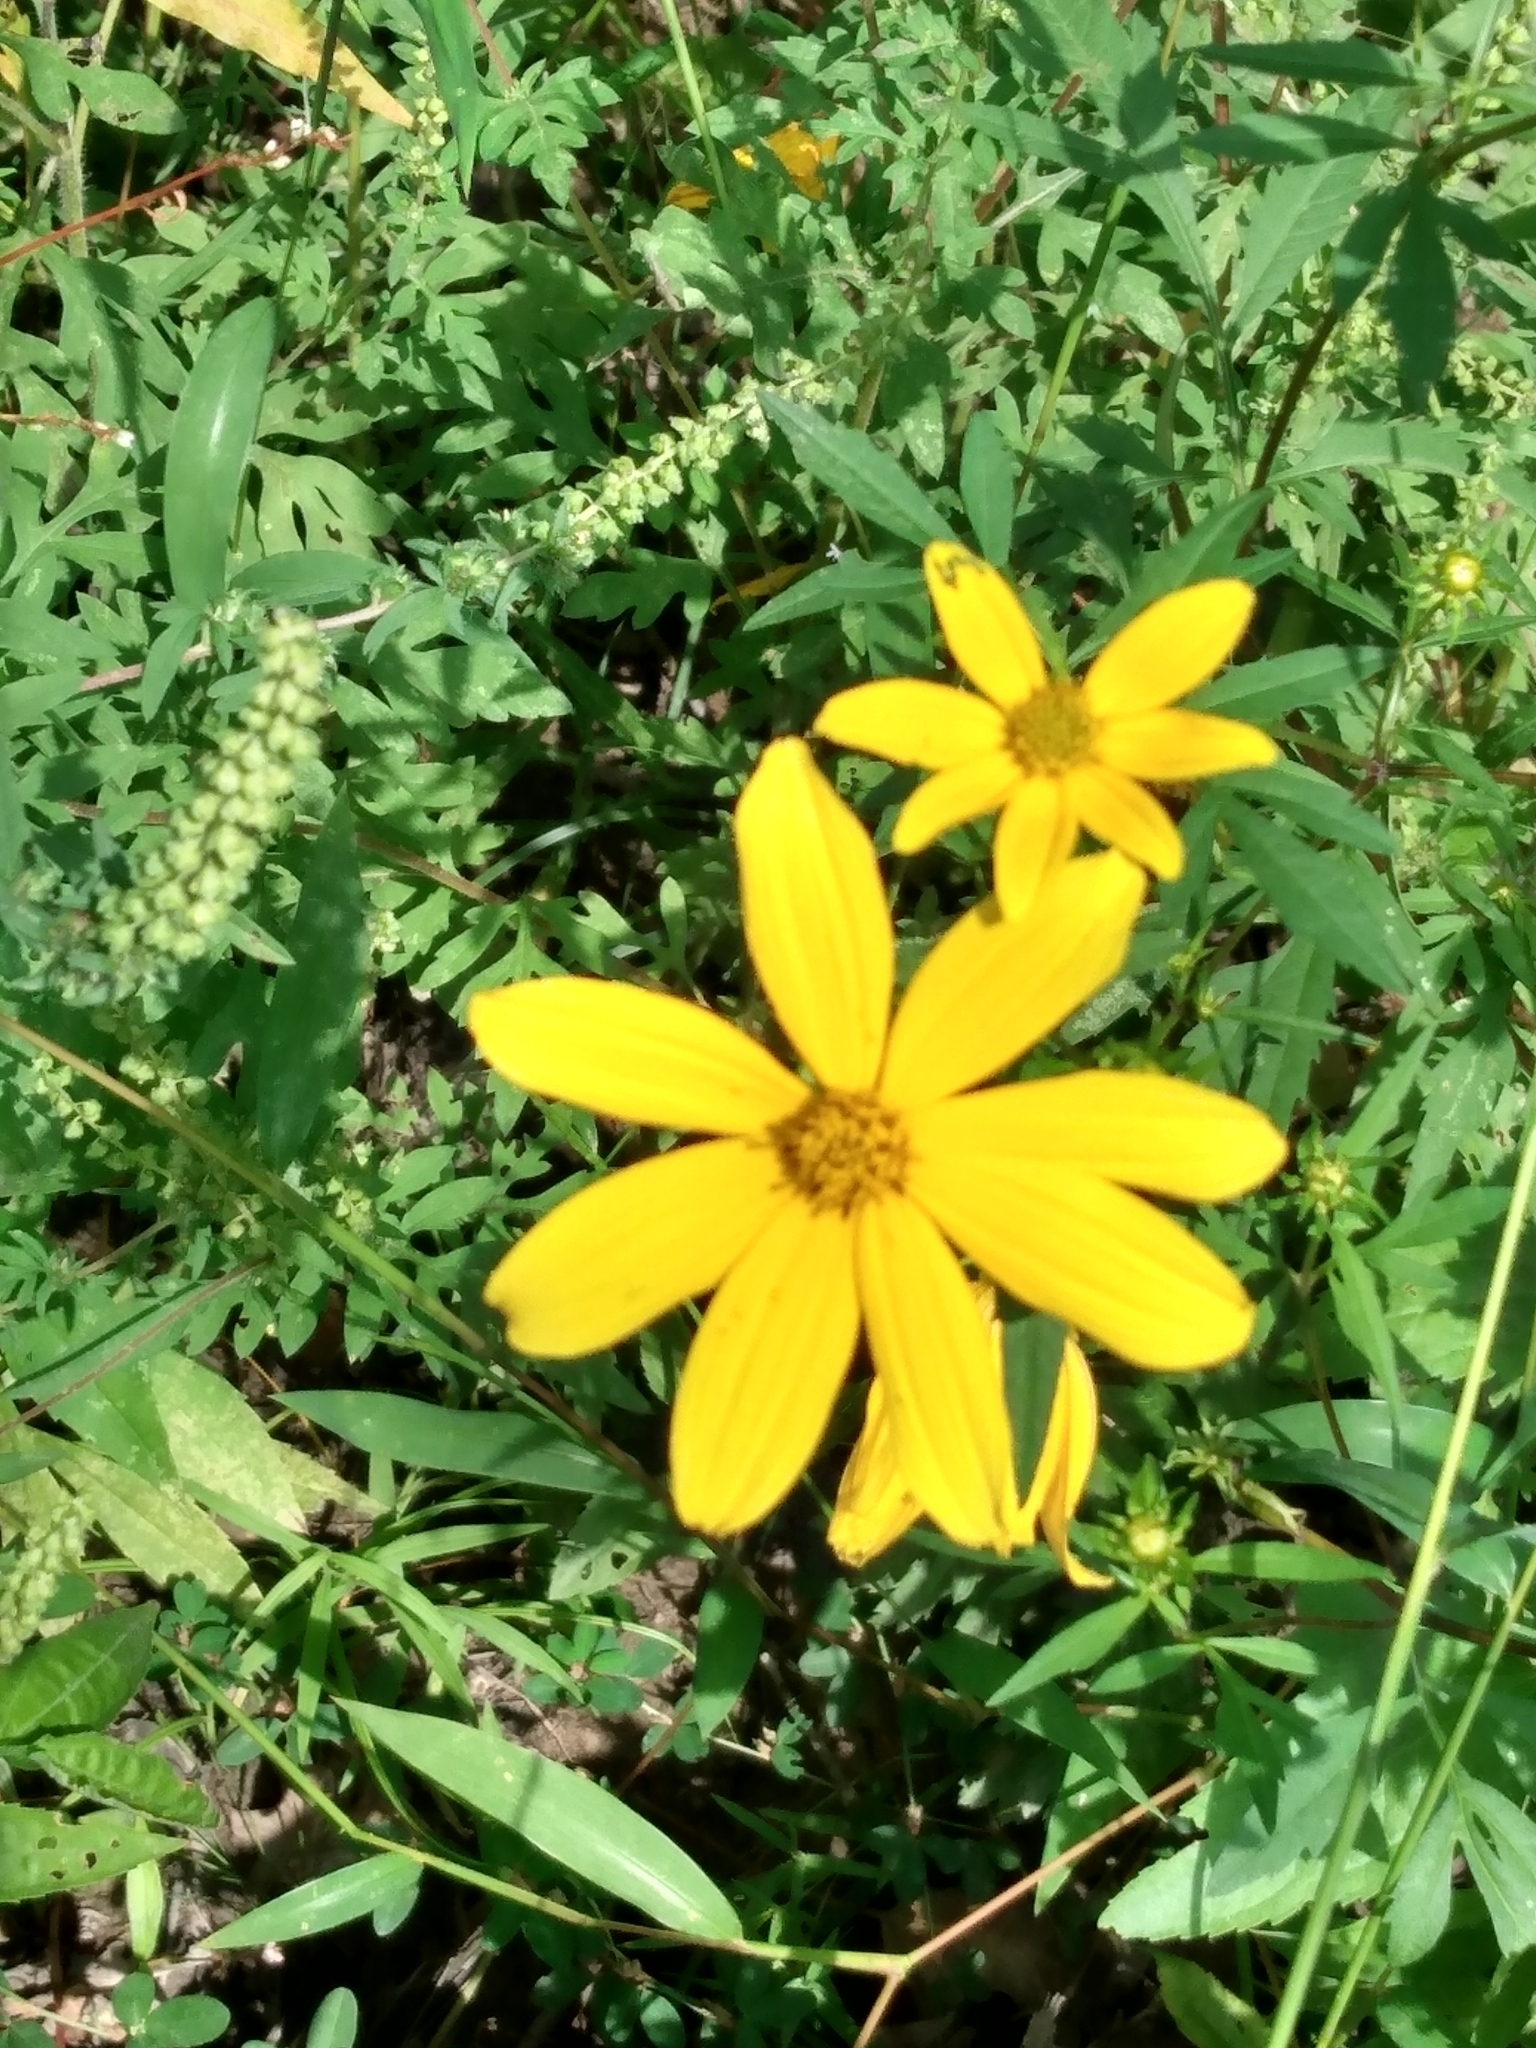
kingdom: Plantae
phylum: Tracheophyta
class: Magnoliopsida
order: Asterales
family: Asteraceae
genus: Bidens
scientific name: Bidens aristosa
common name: Western tickseed
